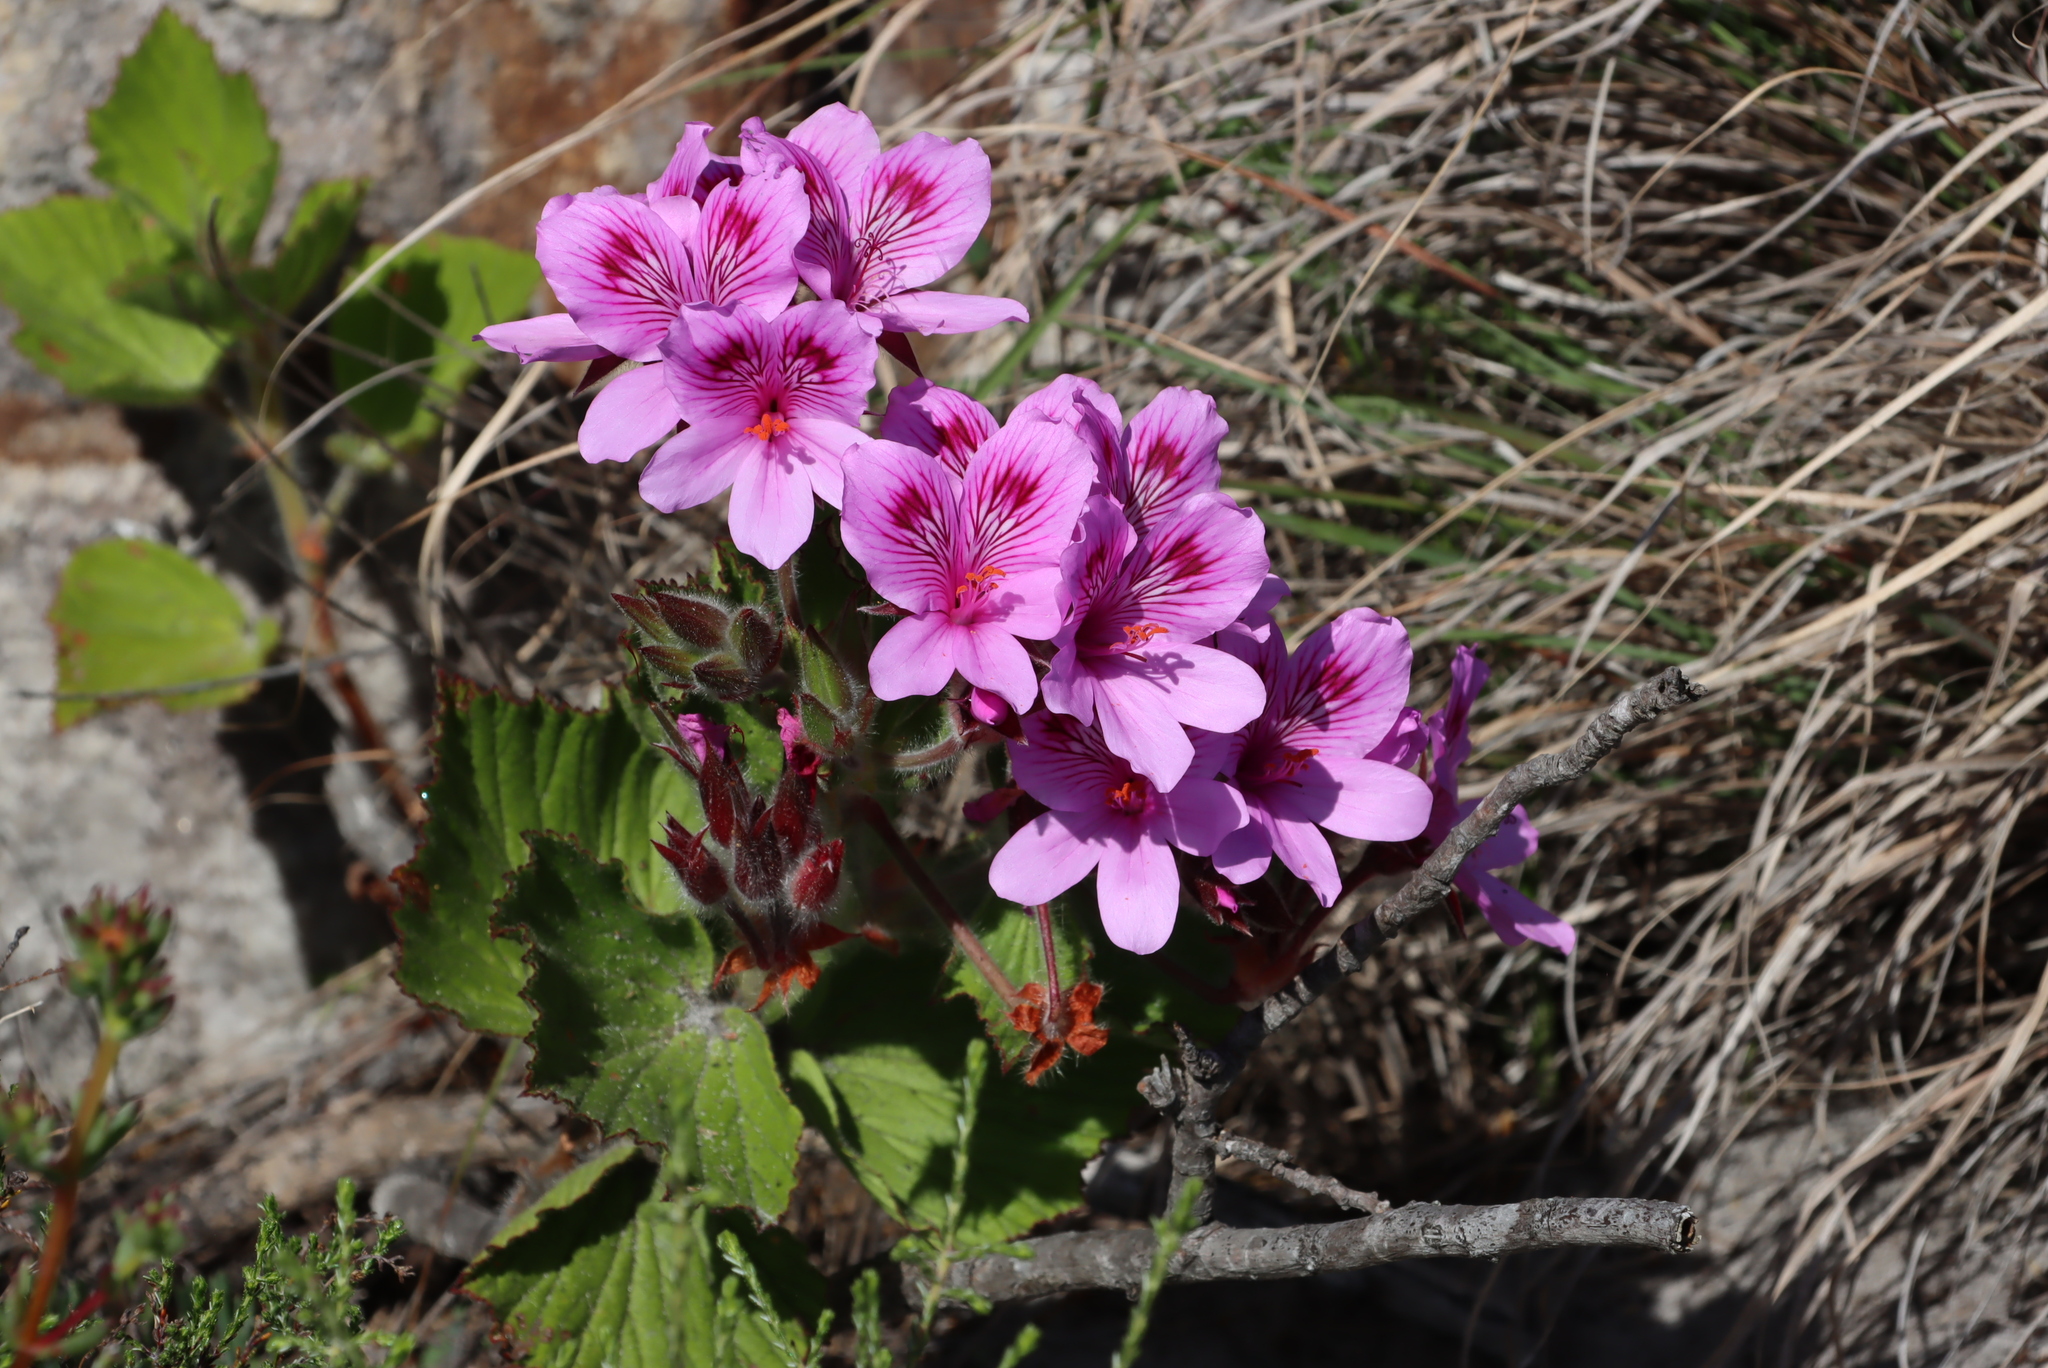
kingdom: Plantae
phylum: Tracheophyta
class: Magnoliopsida
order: Geraniales
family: Geraniaceae
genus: Pelargonium
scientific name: Pelargonium cucullatum
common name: Tree pelargonium
